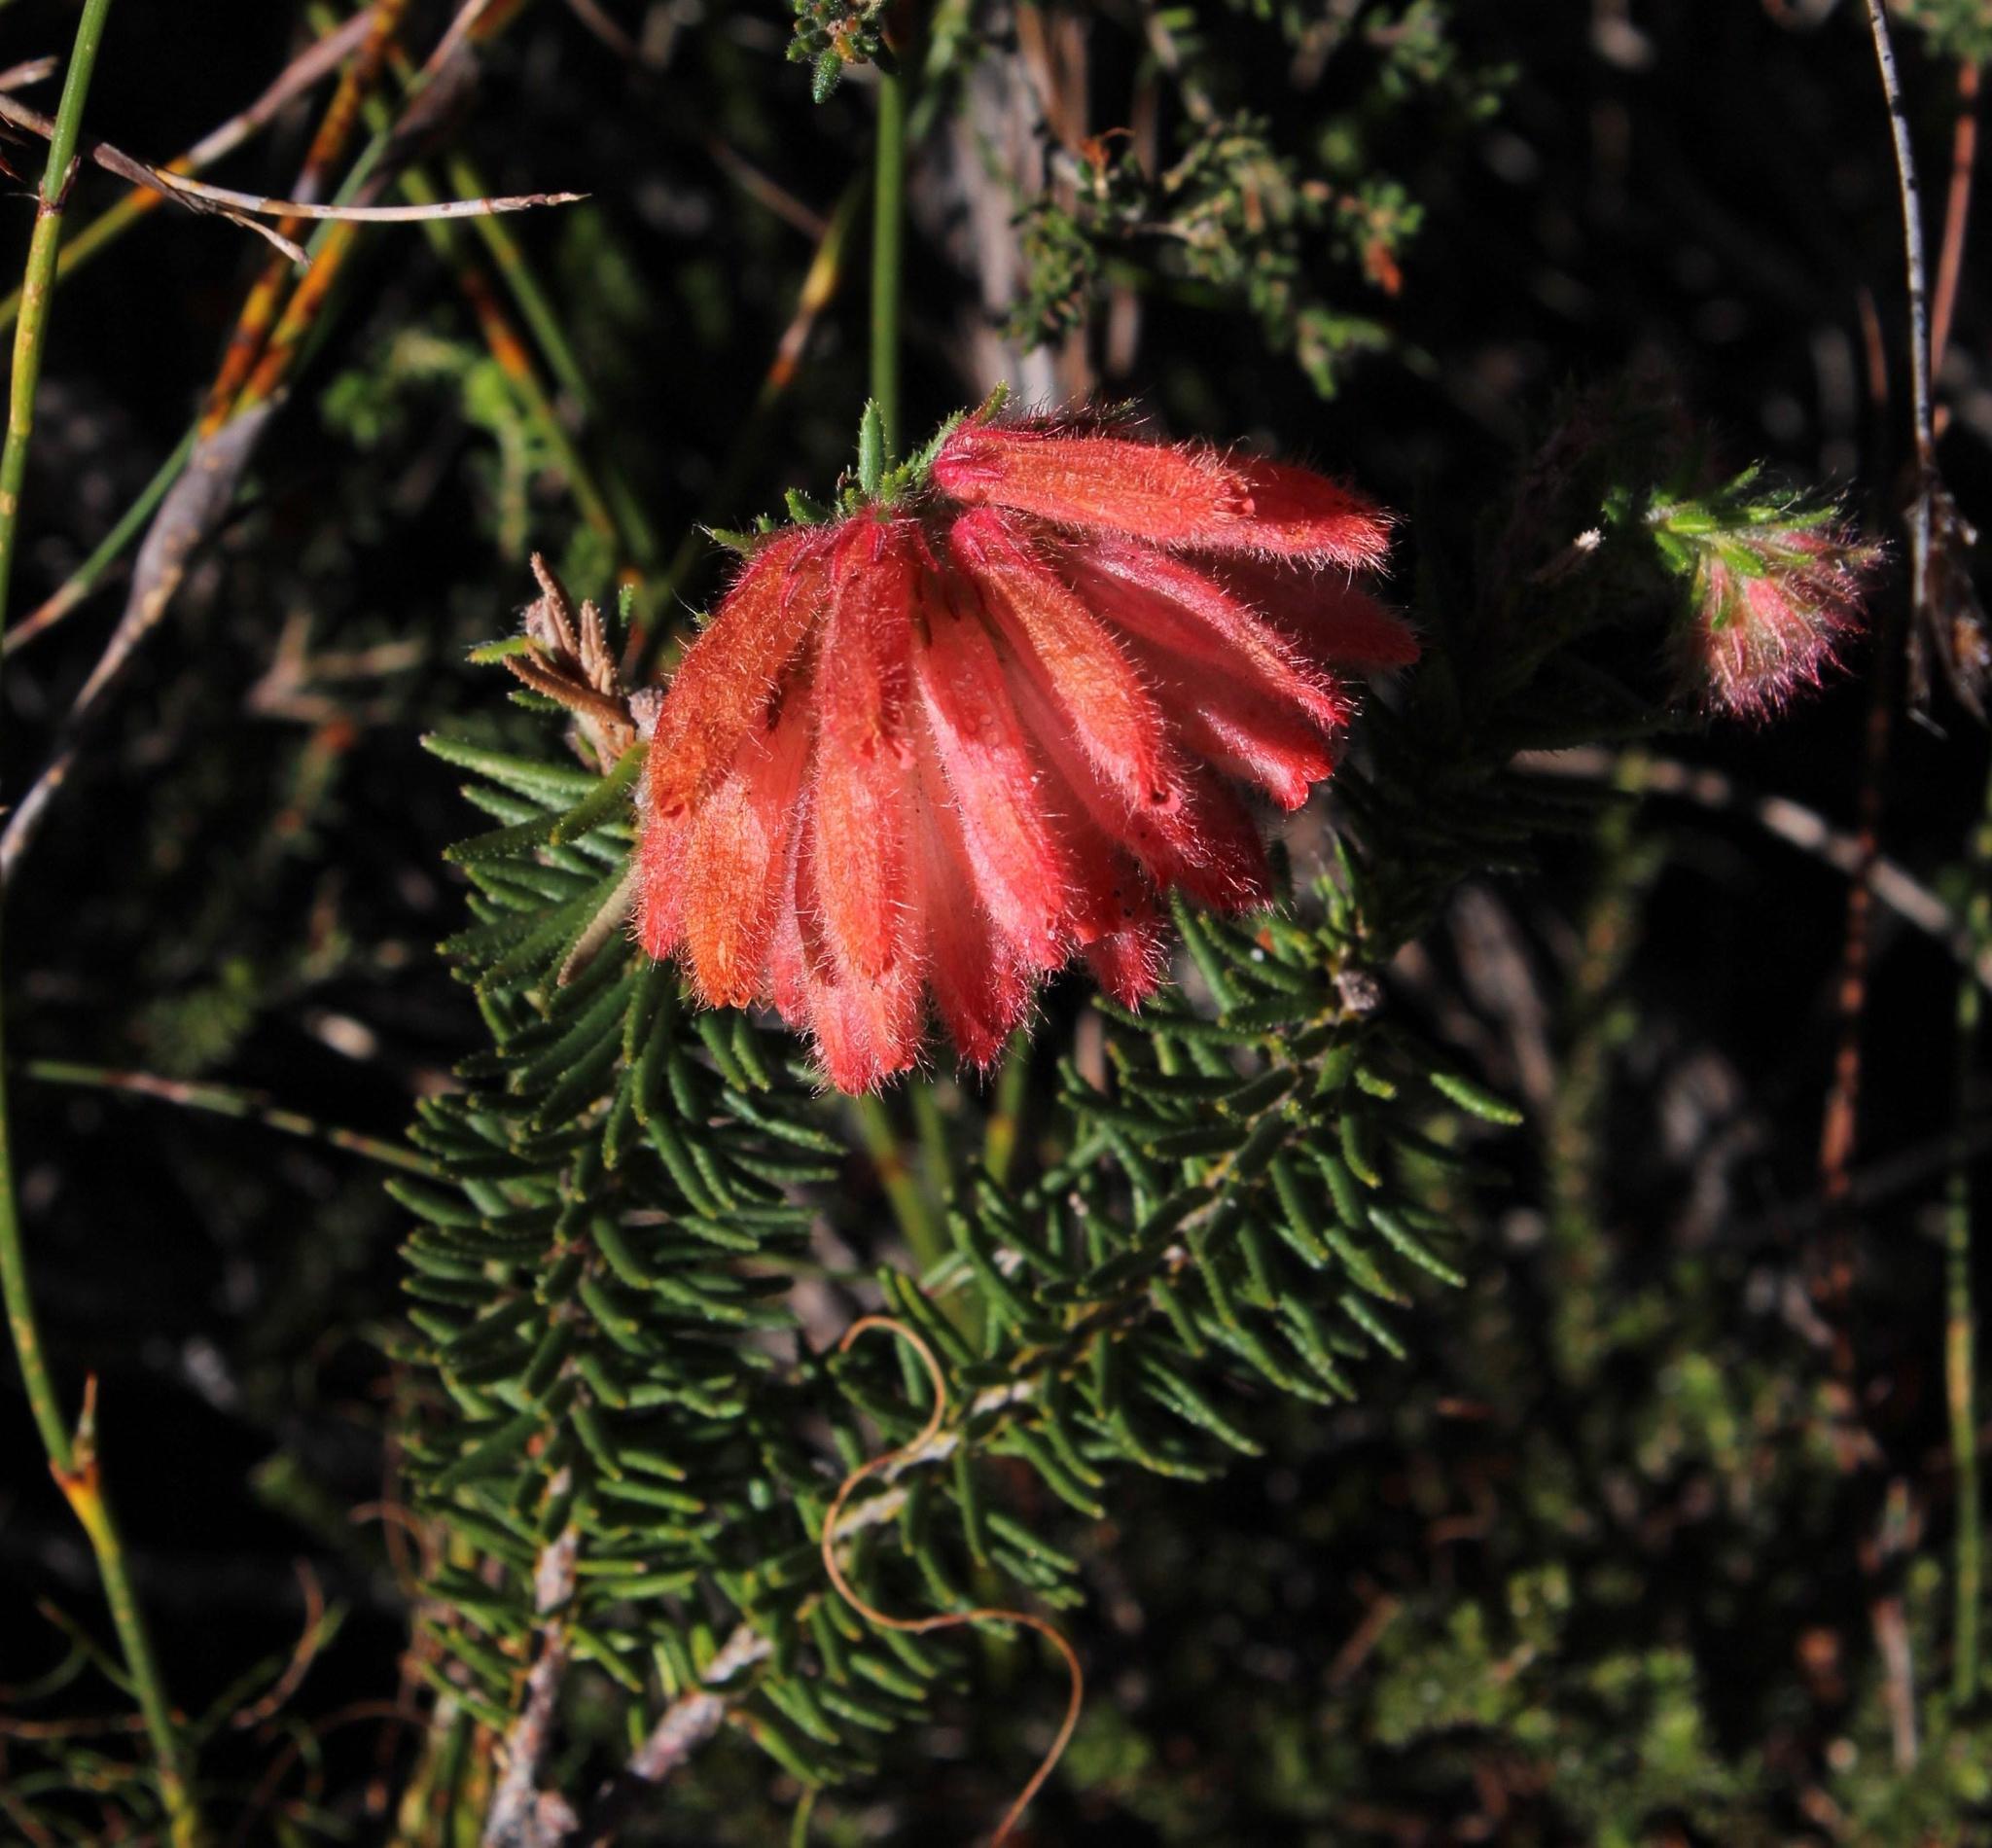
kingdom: Plantae
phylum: Tracheophyta
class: Magnoliopsida
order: Ericales
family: Ericaceae
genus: Erica
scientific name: Erica cerinthoides
